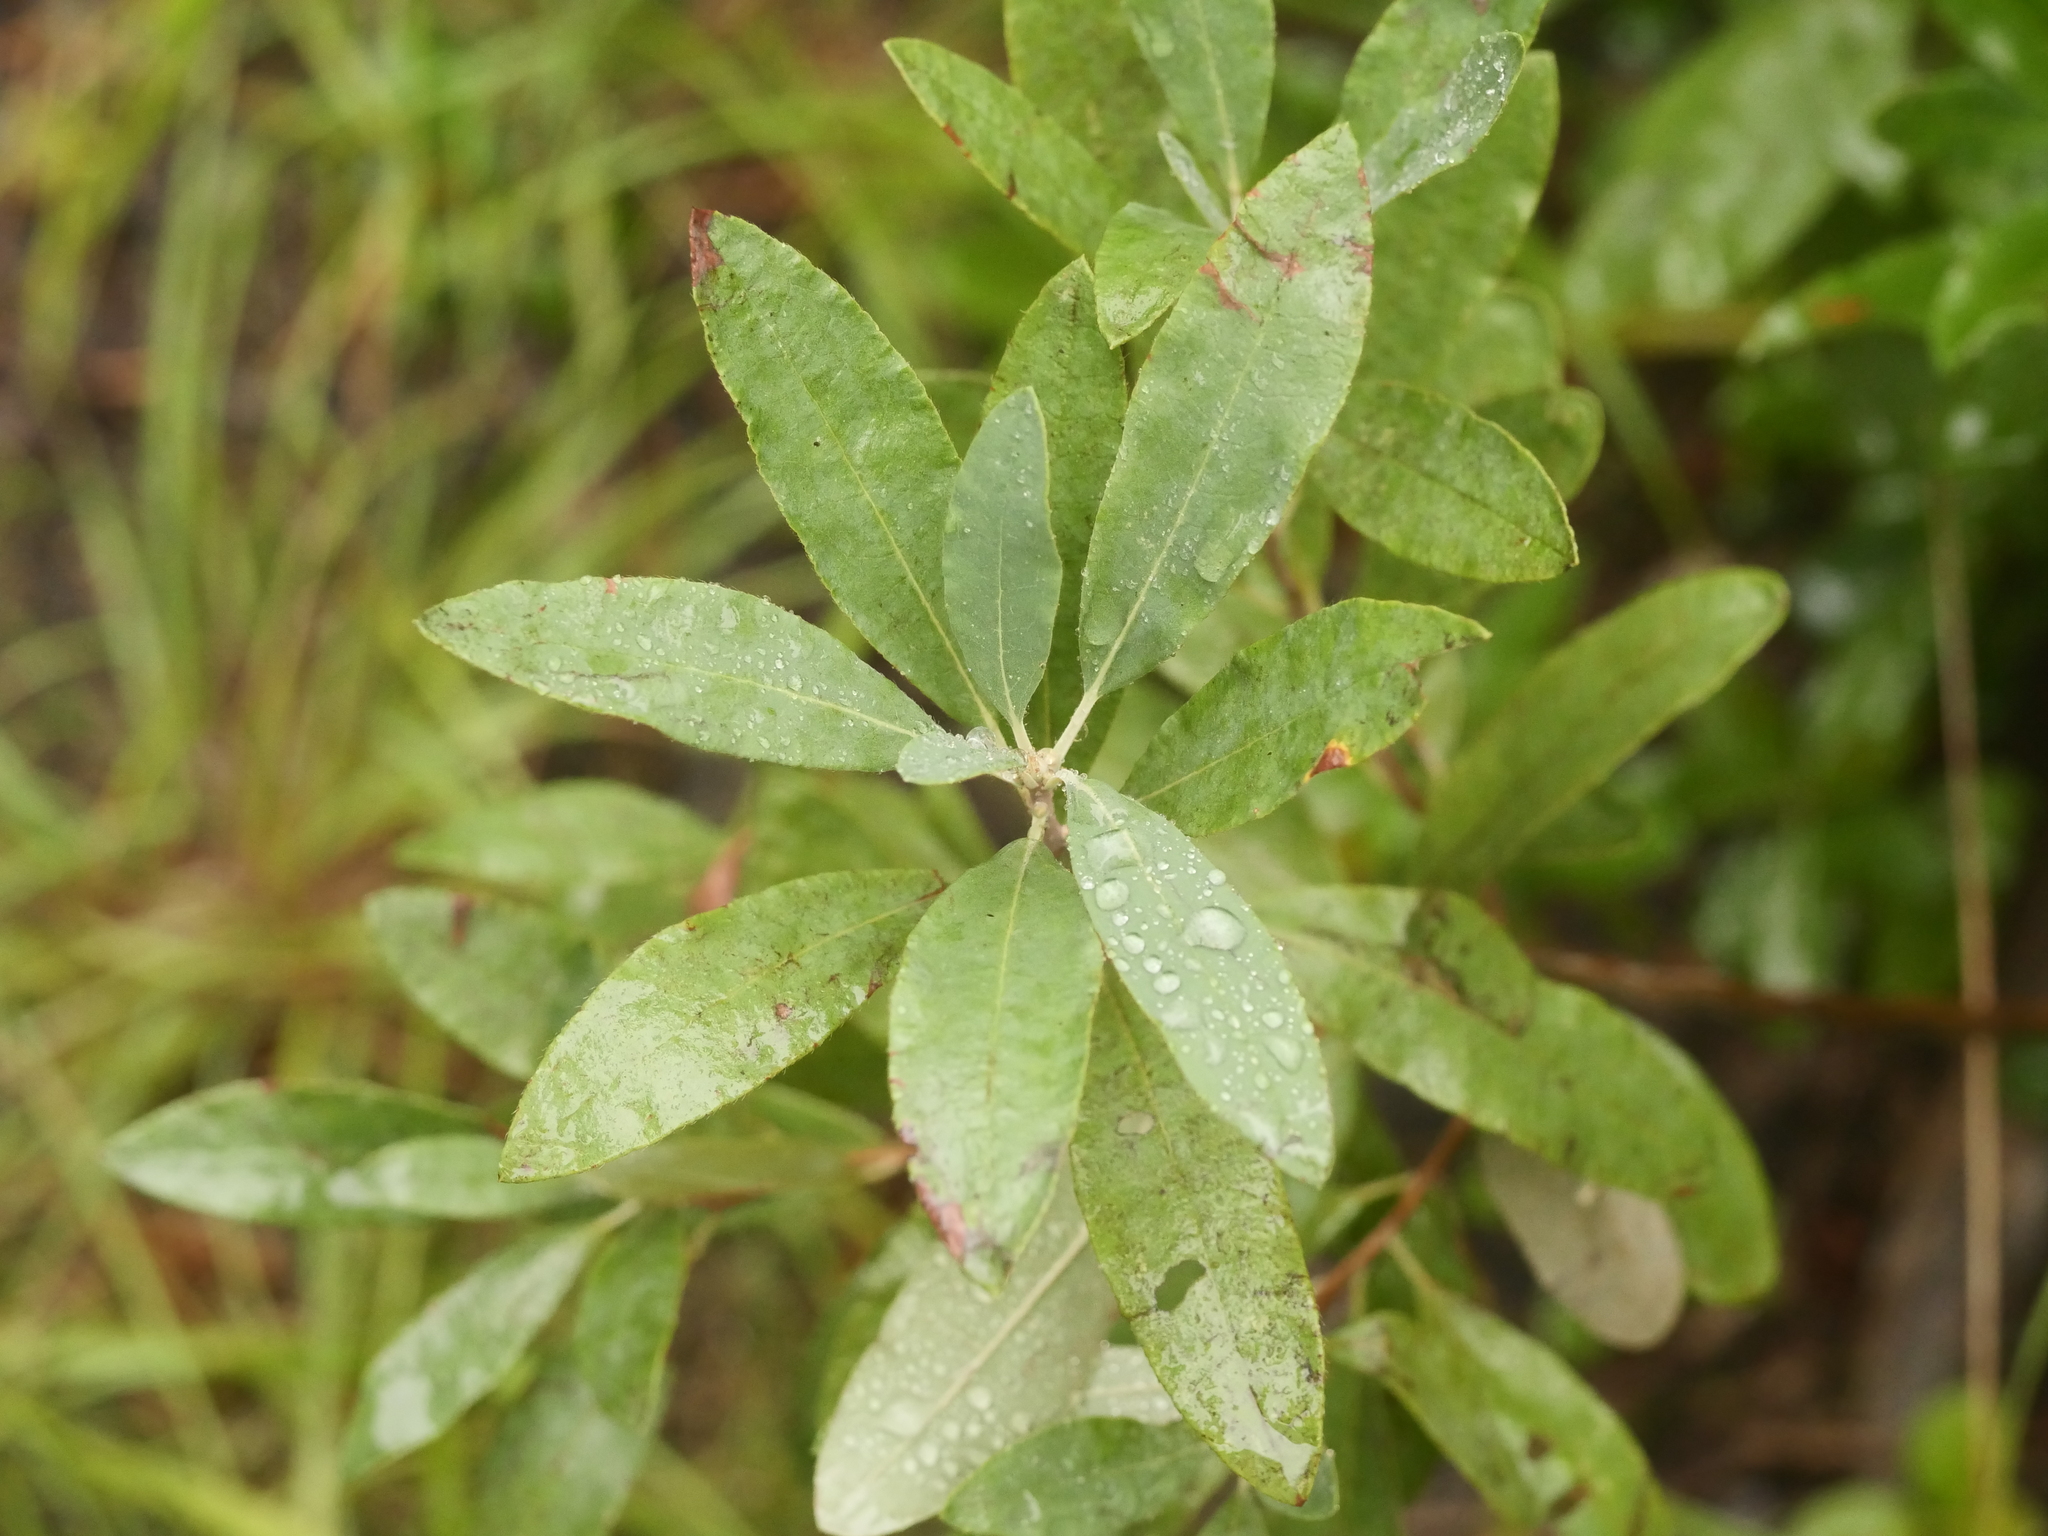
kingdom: Plantae
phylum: Tracheophyta
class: Magnoliopsida
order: Ericales
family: Ericaceae
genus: Rhododendron
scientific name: Rhododendron canadense
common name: Rhodora
